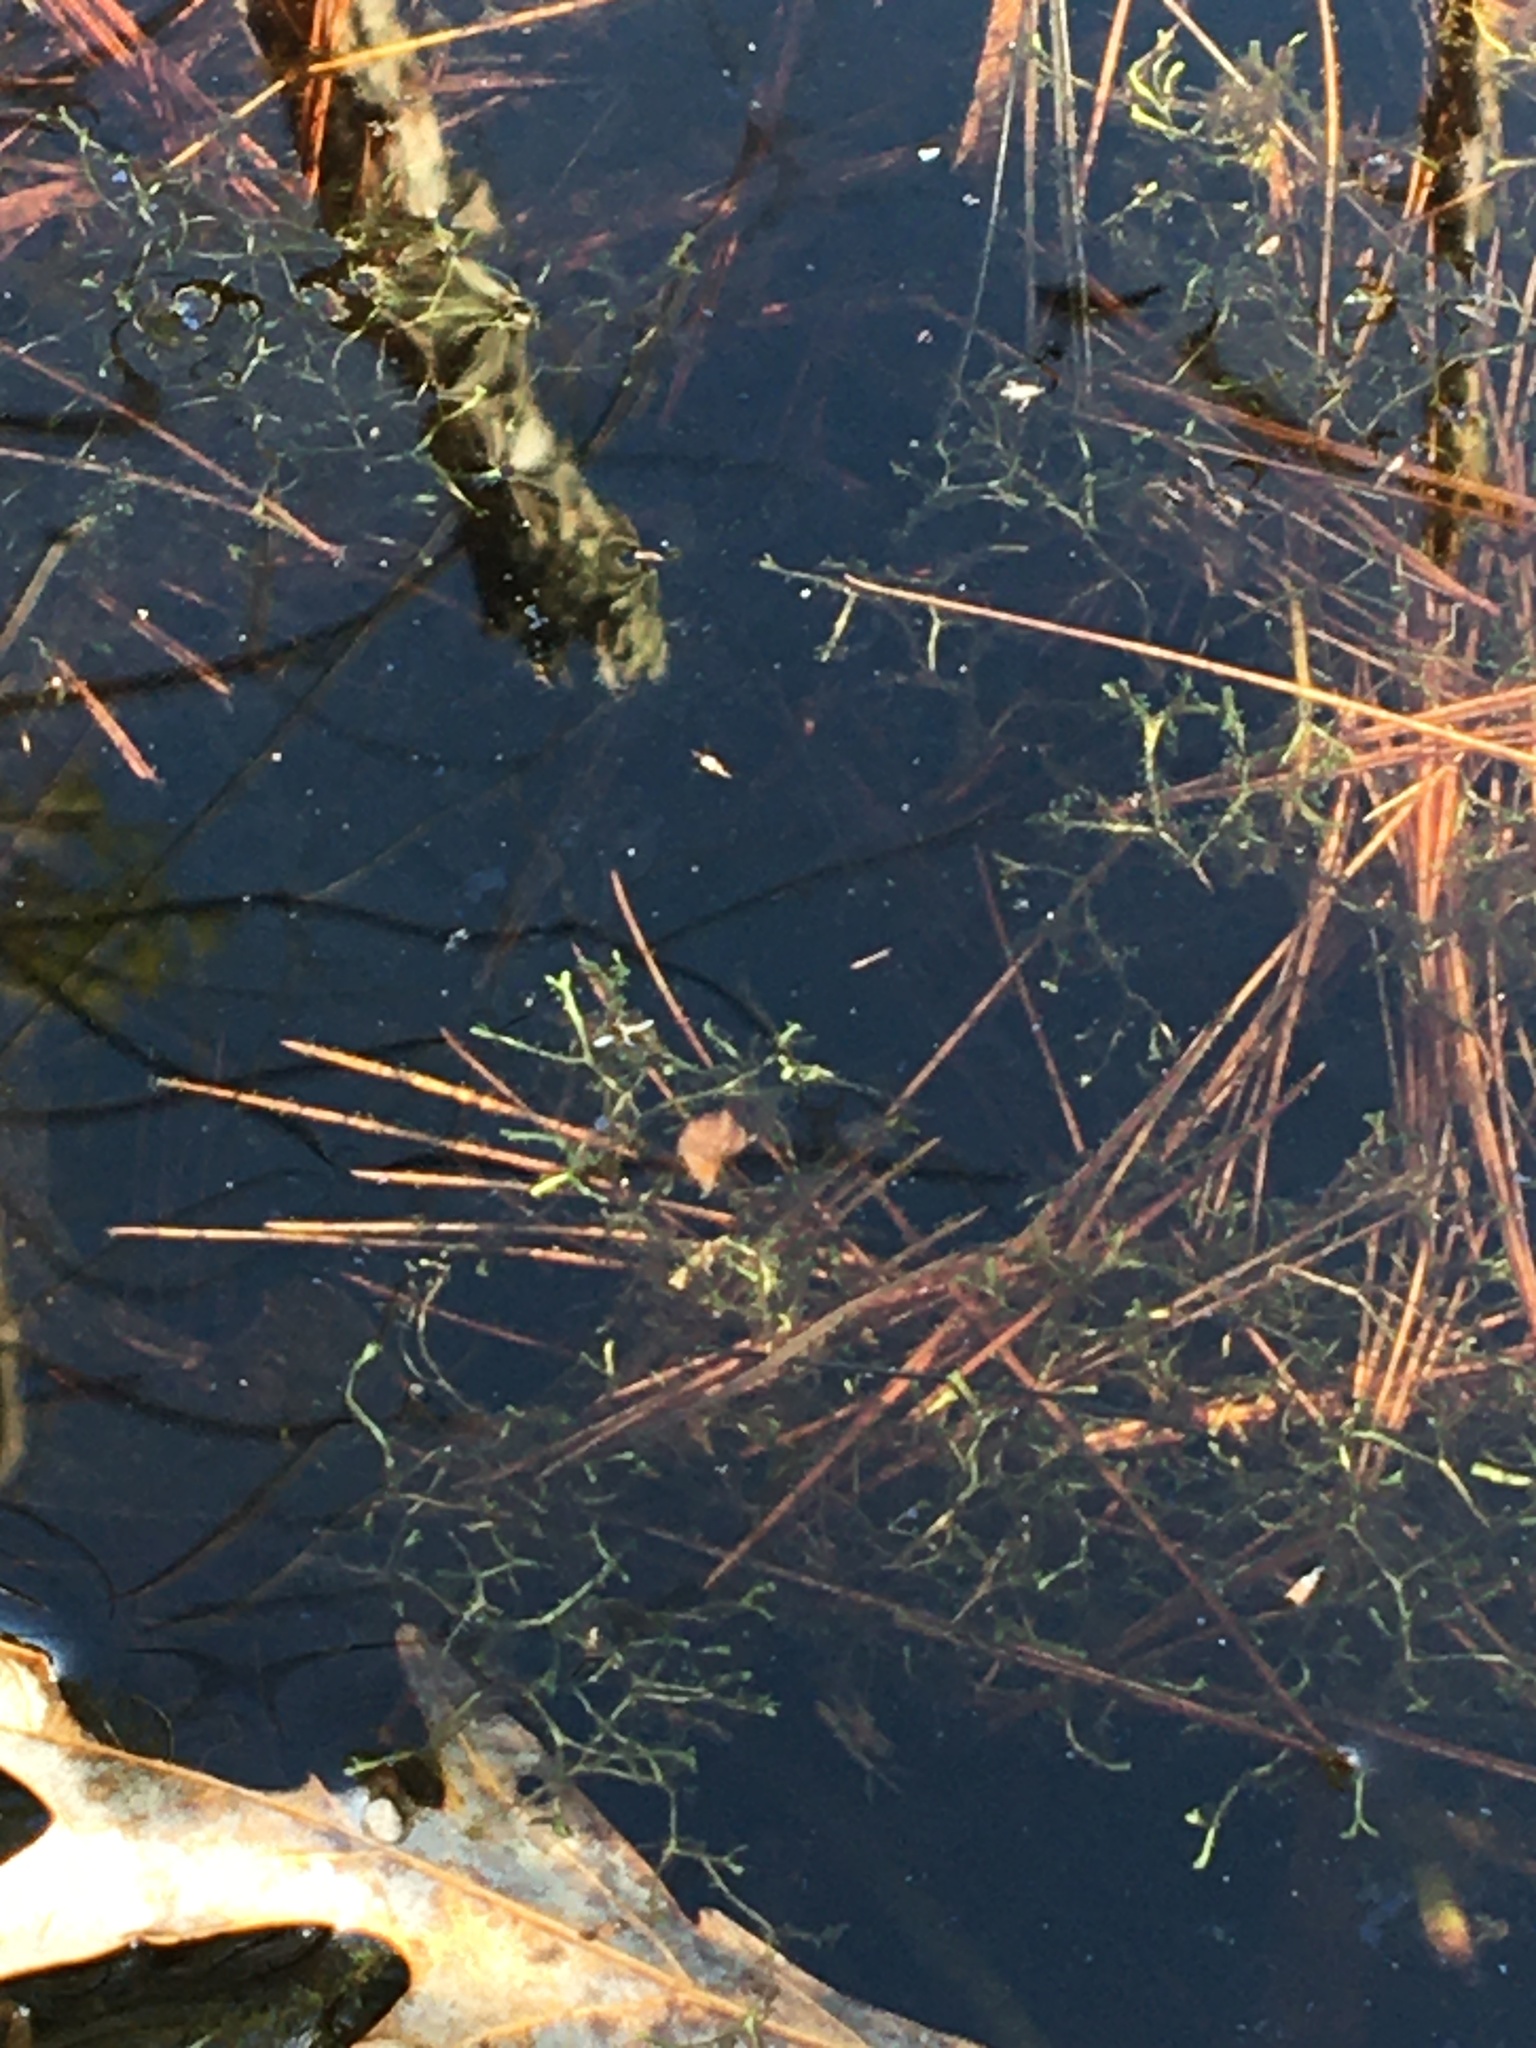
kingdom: Plantae
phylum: Marchantiophyta
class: Marchantiopsida
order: Marchantiales
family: Ricciaceae
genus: Riccia
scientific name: Riccia fluitans
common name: Floating crystalwort
